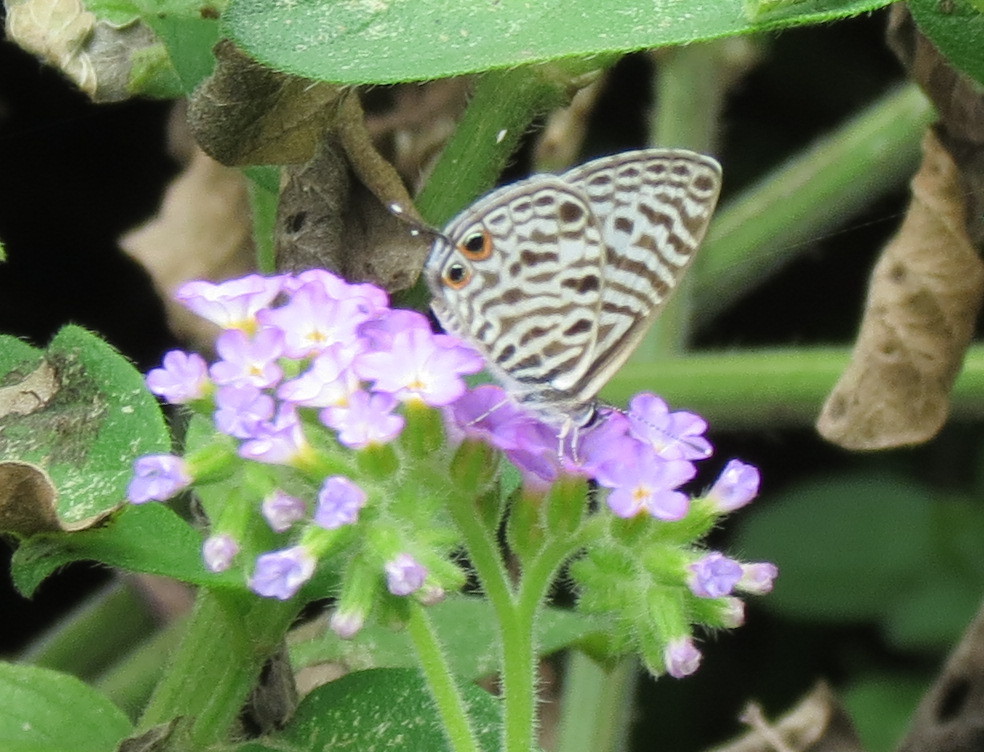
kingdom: Animalia
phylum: Arthropoda
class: Insecta
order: Lepidoptera
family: Lycaenidae
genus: Leptotes
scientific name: Leptotes
